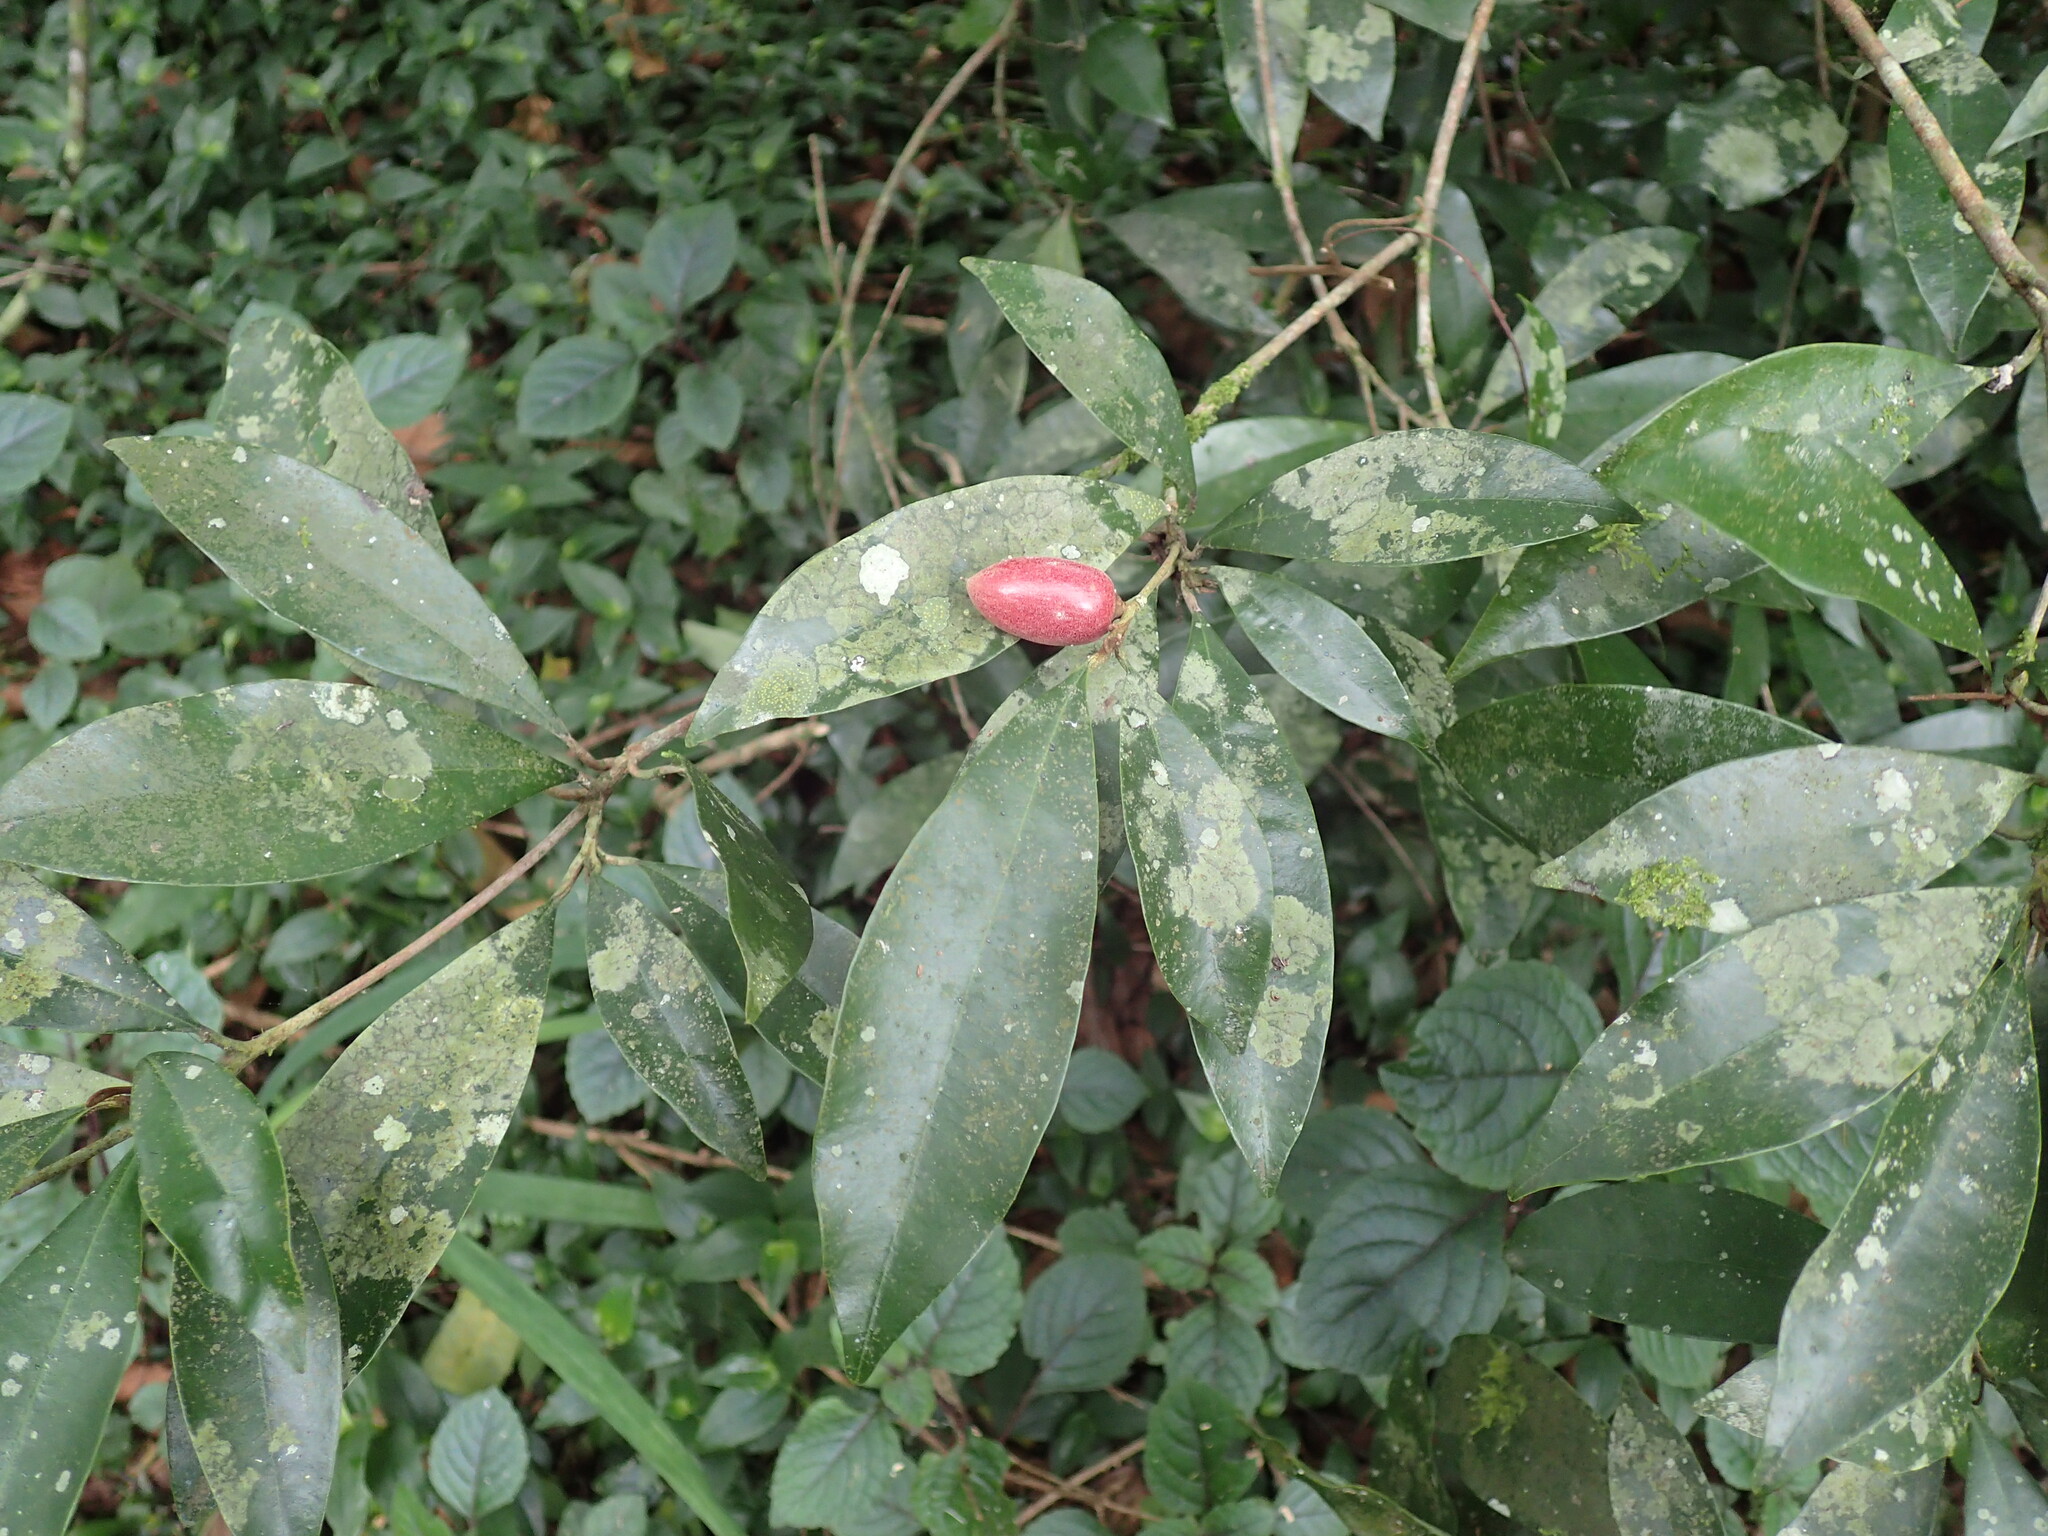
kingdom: Plantae
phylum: Tracheophyta
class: Magnoliopsida
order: Ericales
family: Sapotaceae
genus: Englerophytum
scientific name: Englerophytum natalense
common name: Silver-leaved milkplum
